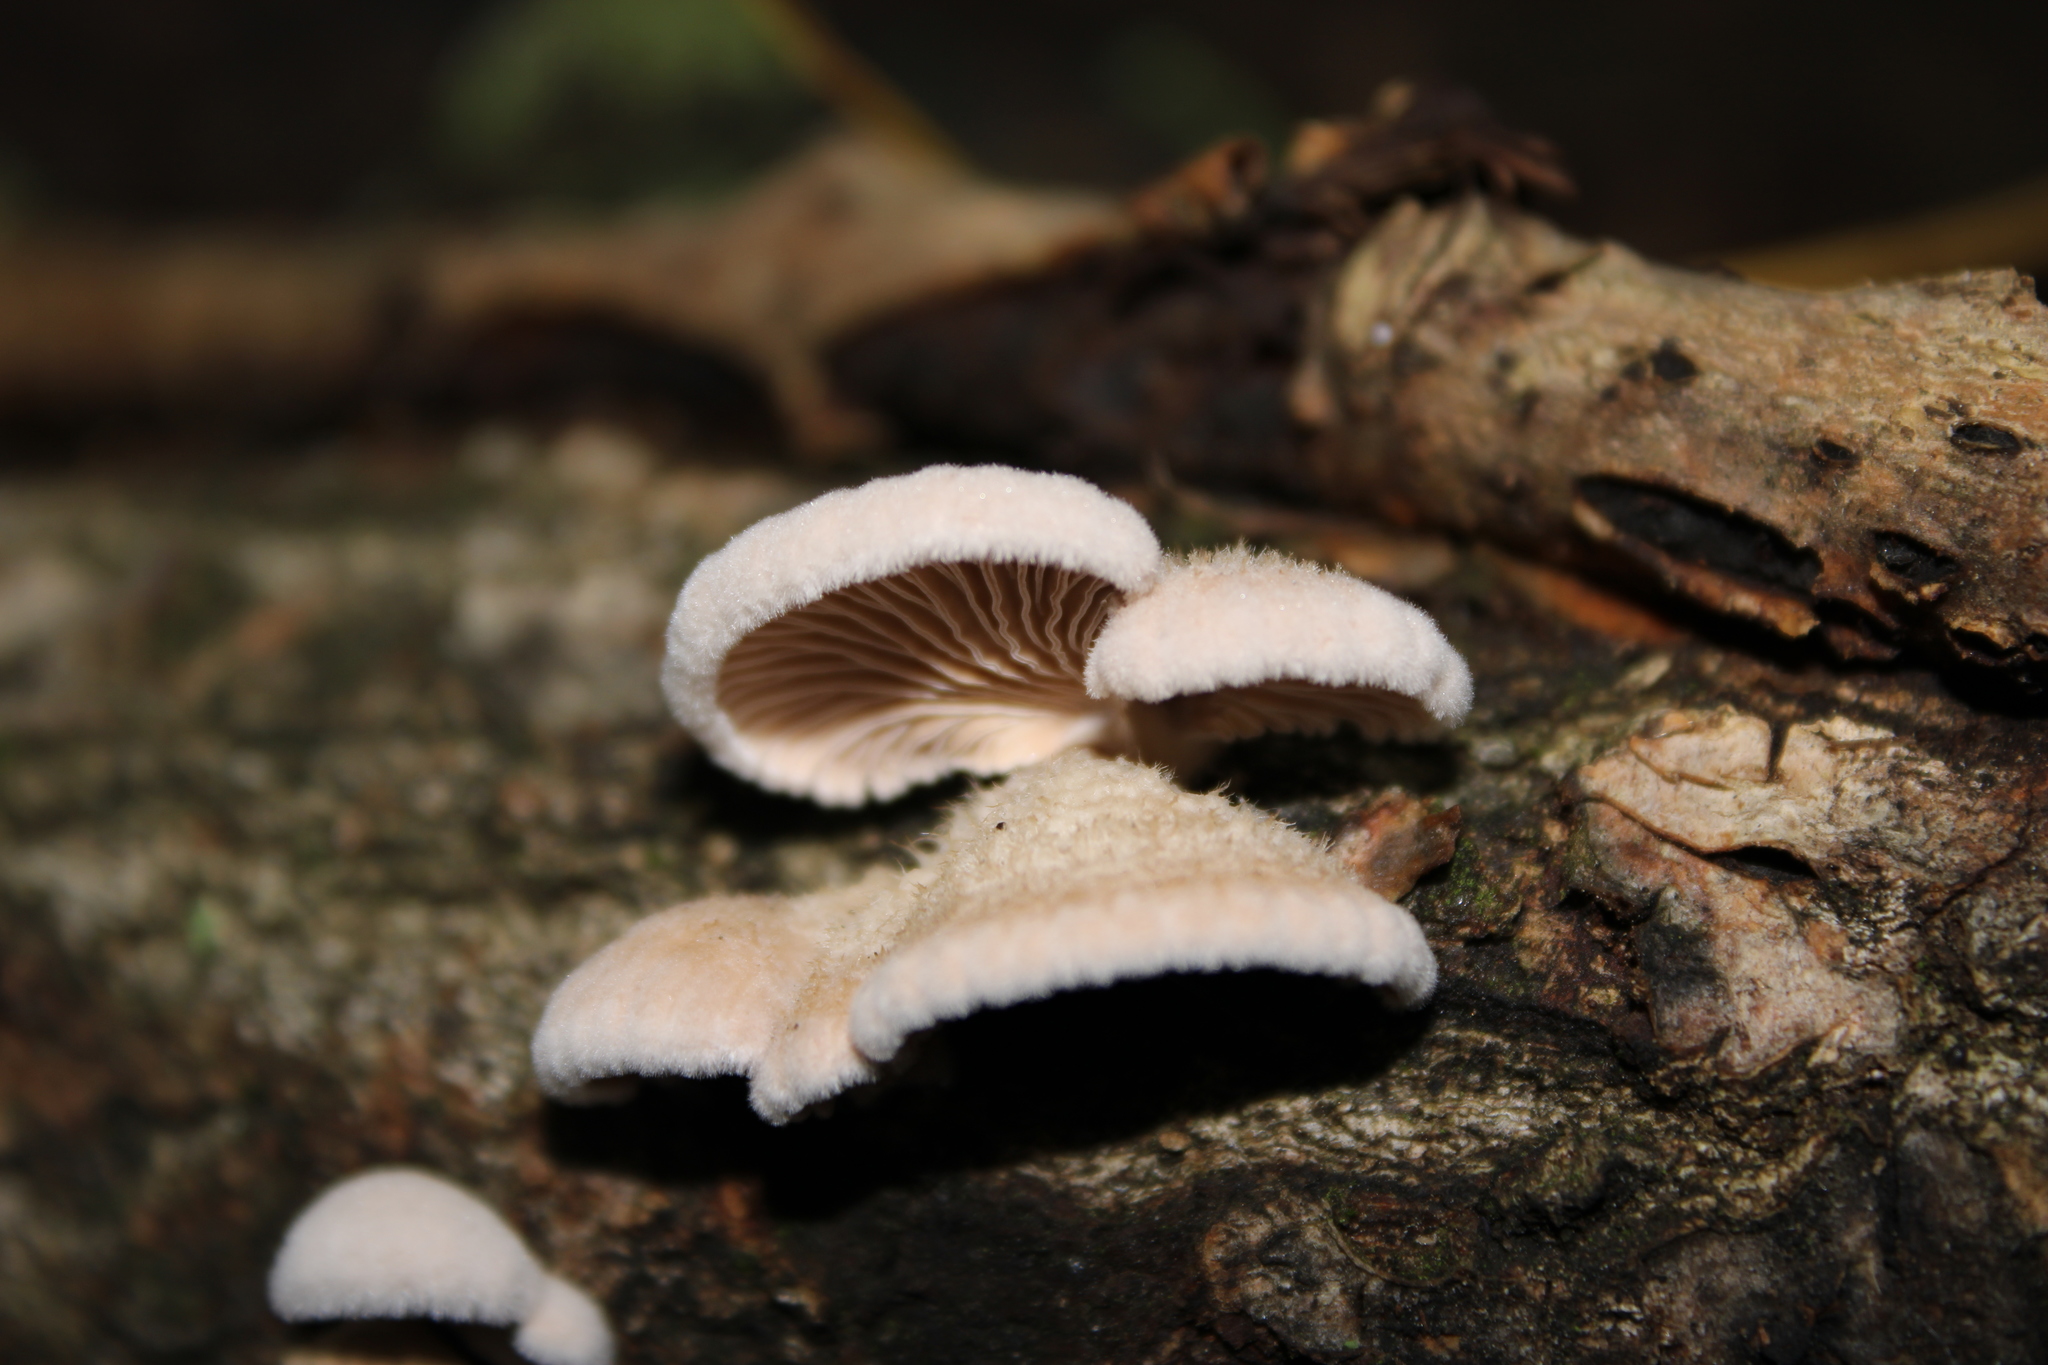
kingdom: Fungi
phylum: Basidiomycota
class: Agaricomycetes
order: Agaricales
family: Schizophyllaceae
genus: Schizophyllum
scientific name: Schizophyllum commune
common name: Common porecrust
